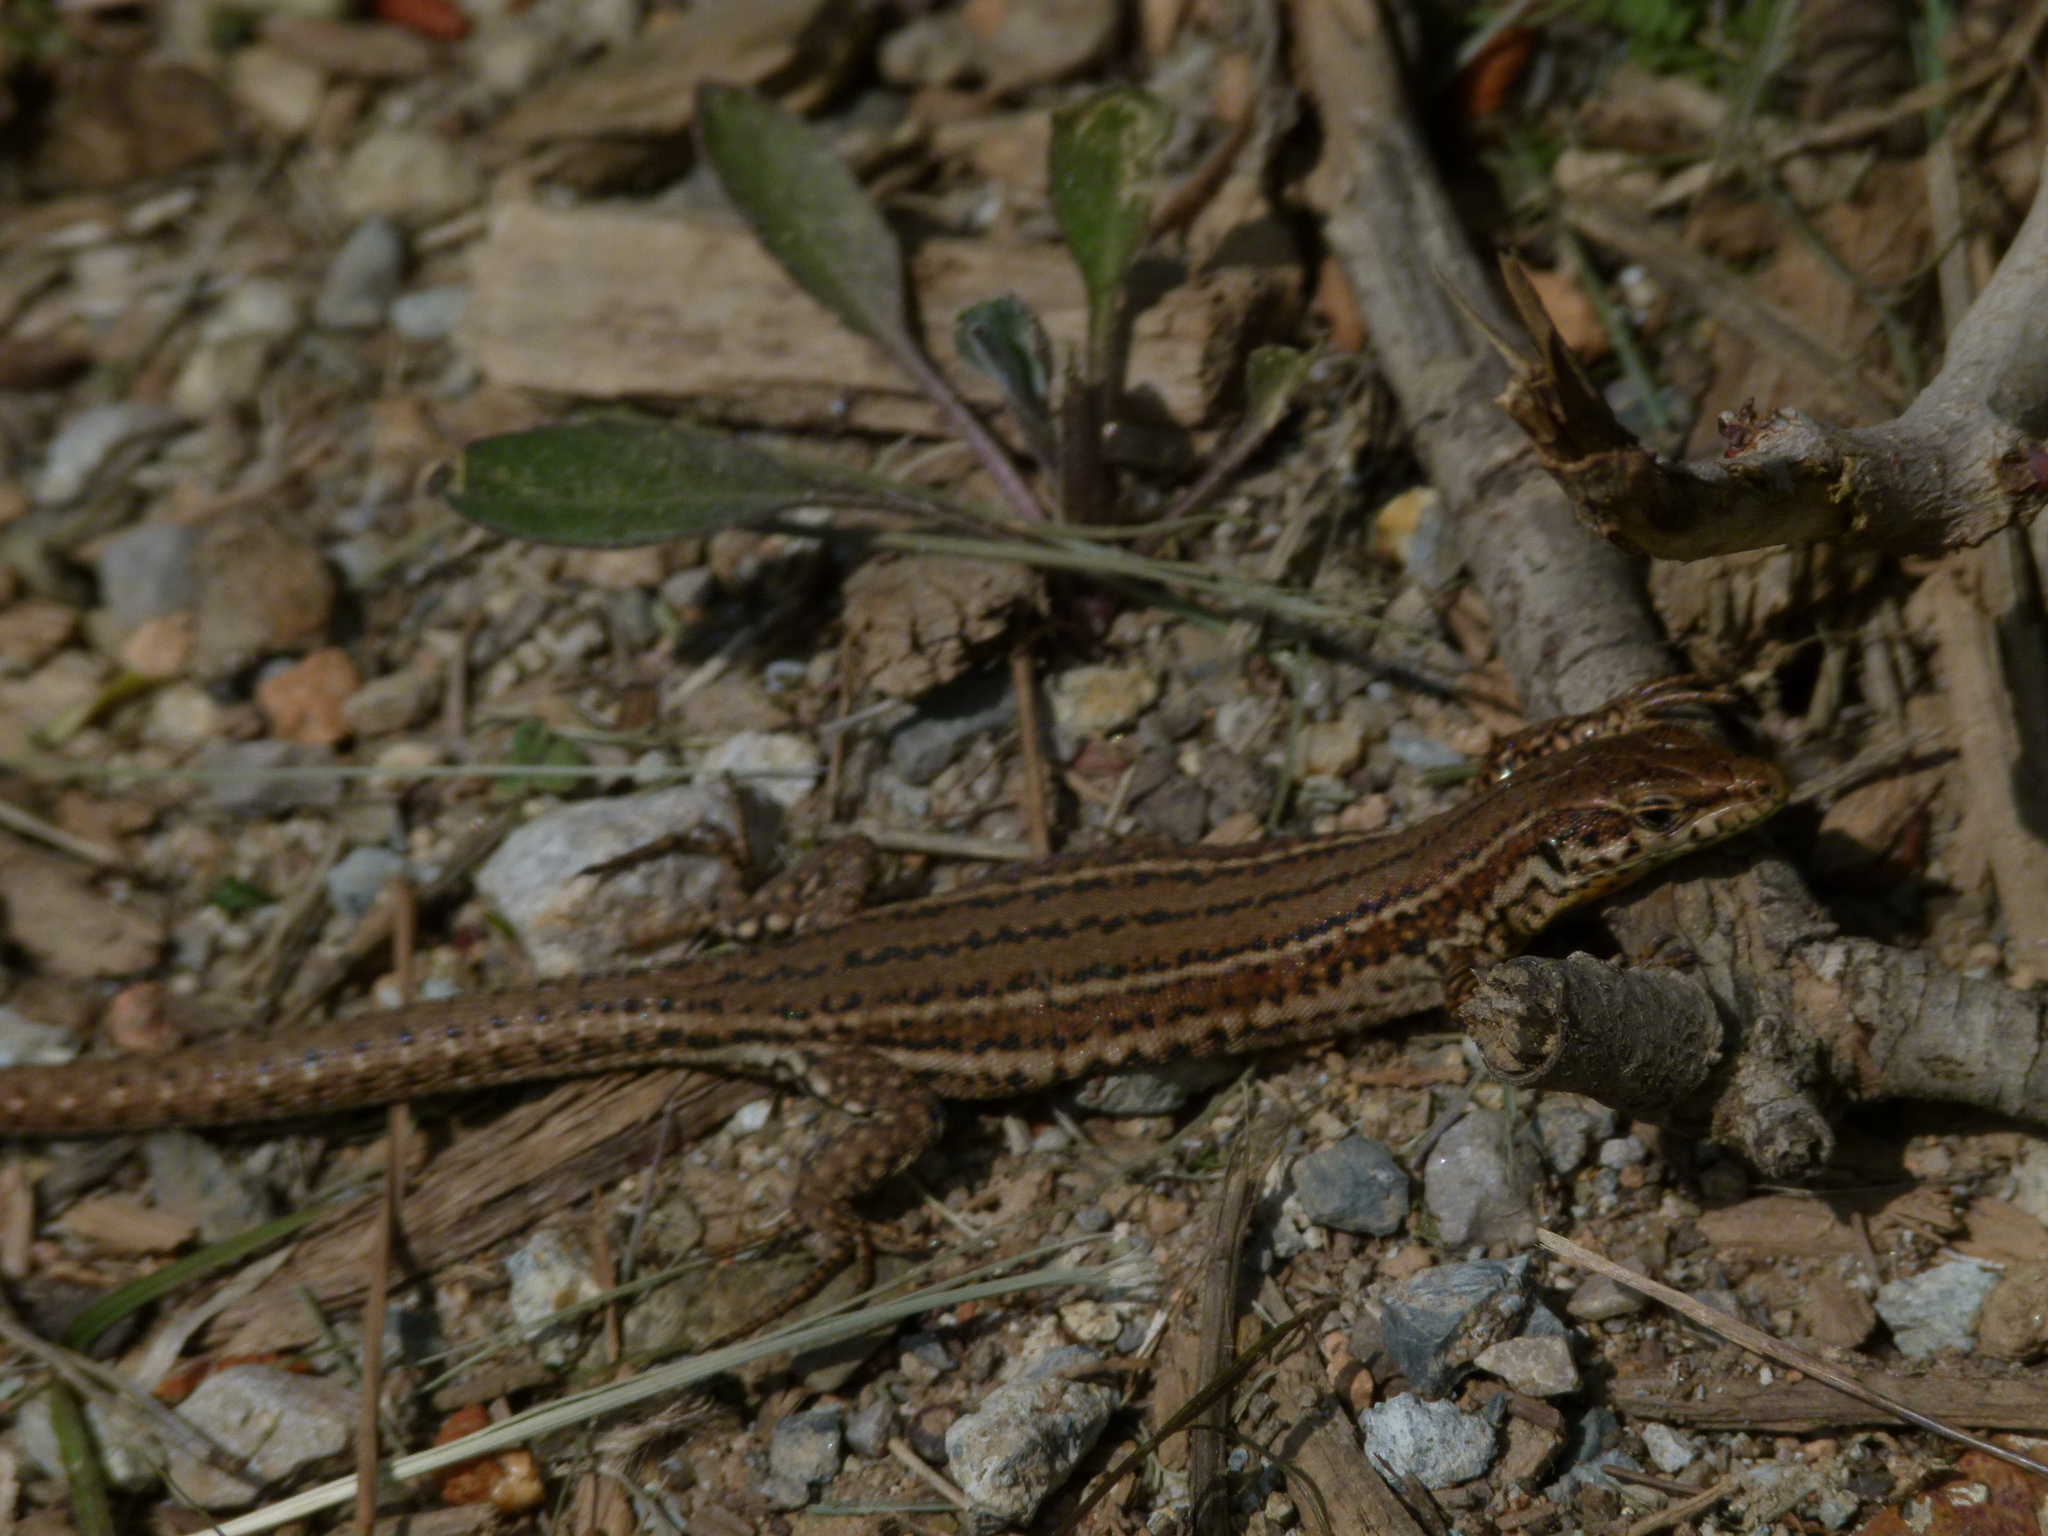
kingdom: Animalia
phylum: Chordata
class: Squamata
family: Lacertidae
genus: Podarcis
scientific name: Podarcis liolepis
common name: Catalonian wall lizard
